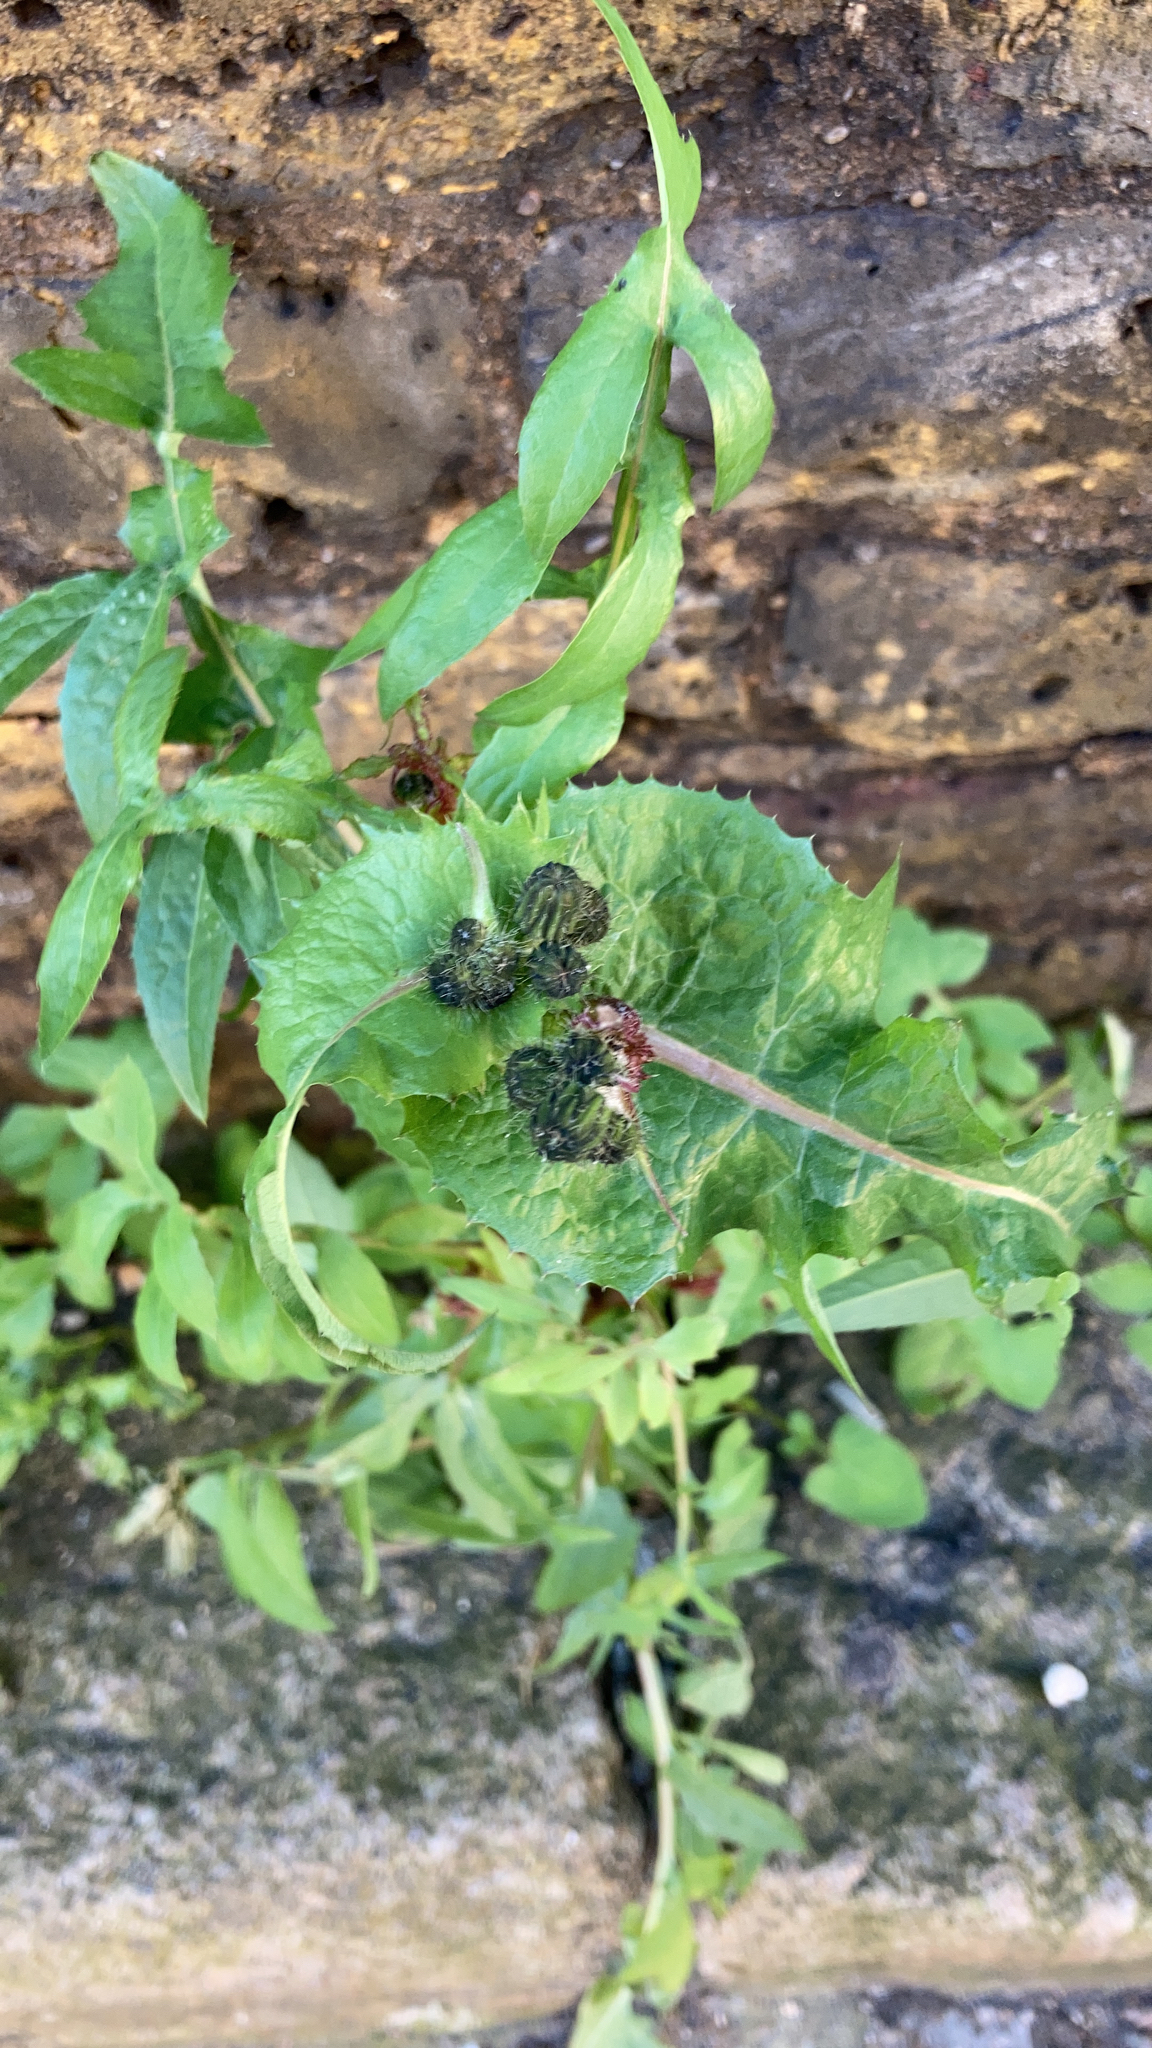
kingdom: Plantae
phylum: Tracheophyta
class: Magnoliopsida
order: Asterales
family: Asteraceae
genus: Sonchus
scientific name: Sonchus oleraceus
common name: Common sowthistle
